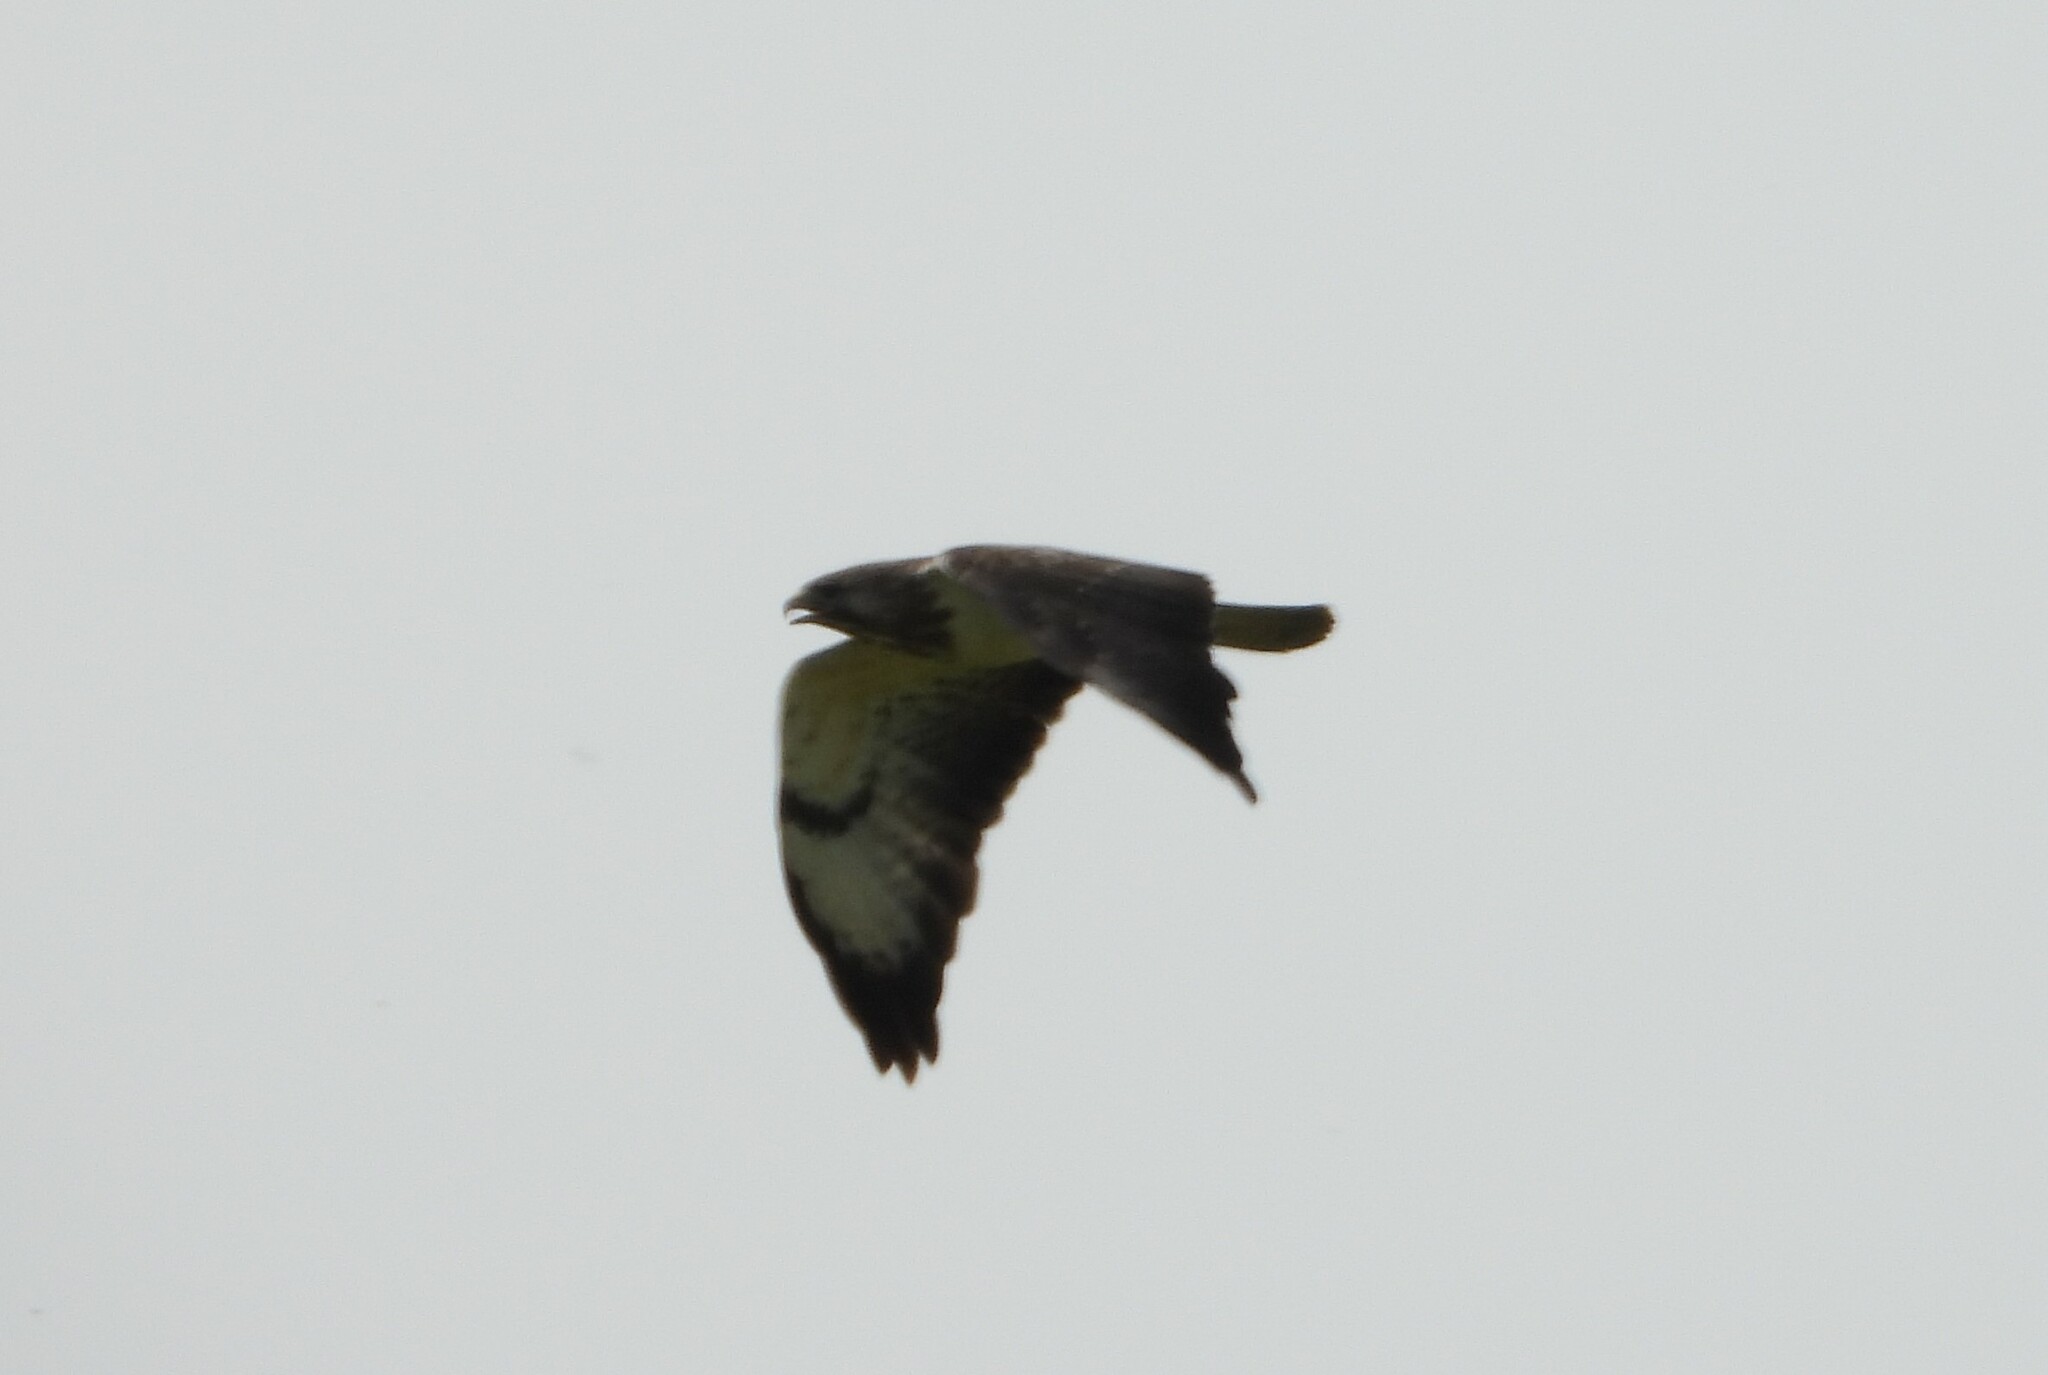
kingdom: Animalia
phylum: Chordata
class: Aves
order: Accipitriformes
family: Accipitridae
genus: Buteo
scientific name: Buteo buteo
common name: Common buzzard
